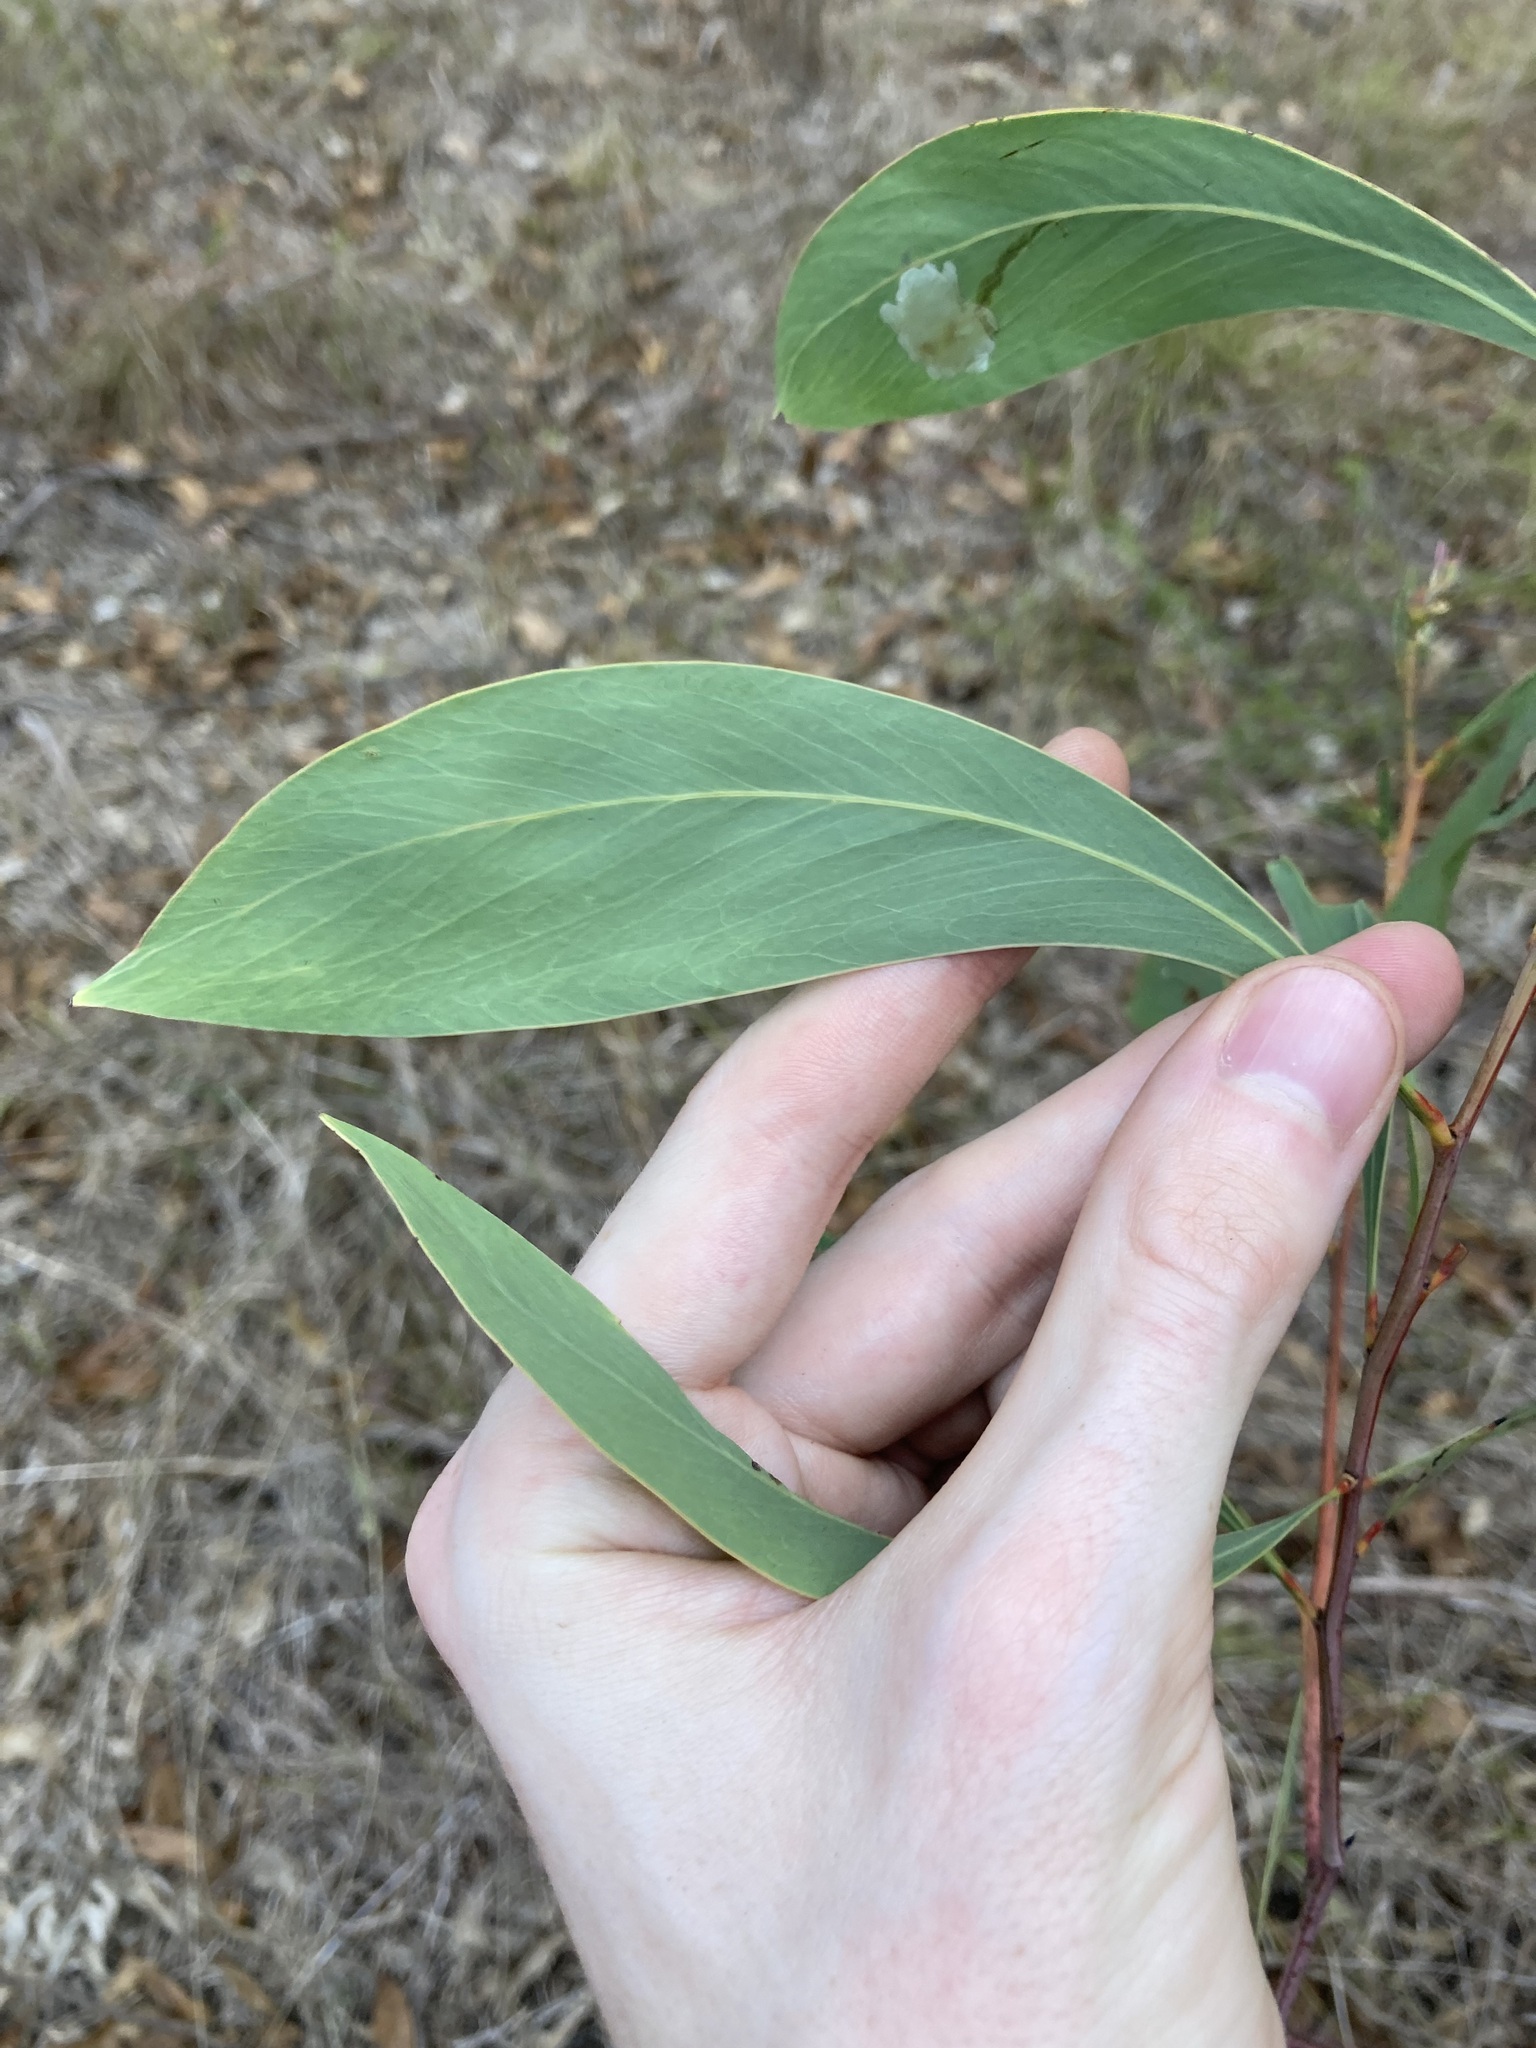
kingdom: Plantae
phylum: Tracheophyta
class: Magnoliopsida
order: Fabales
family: Fabaceae
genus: Acacia
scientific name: Acacia falcata
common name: Burra acacia
